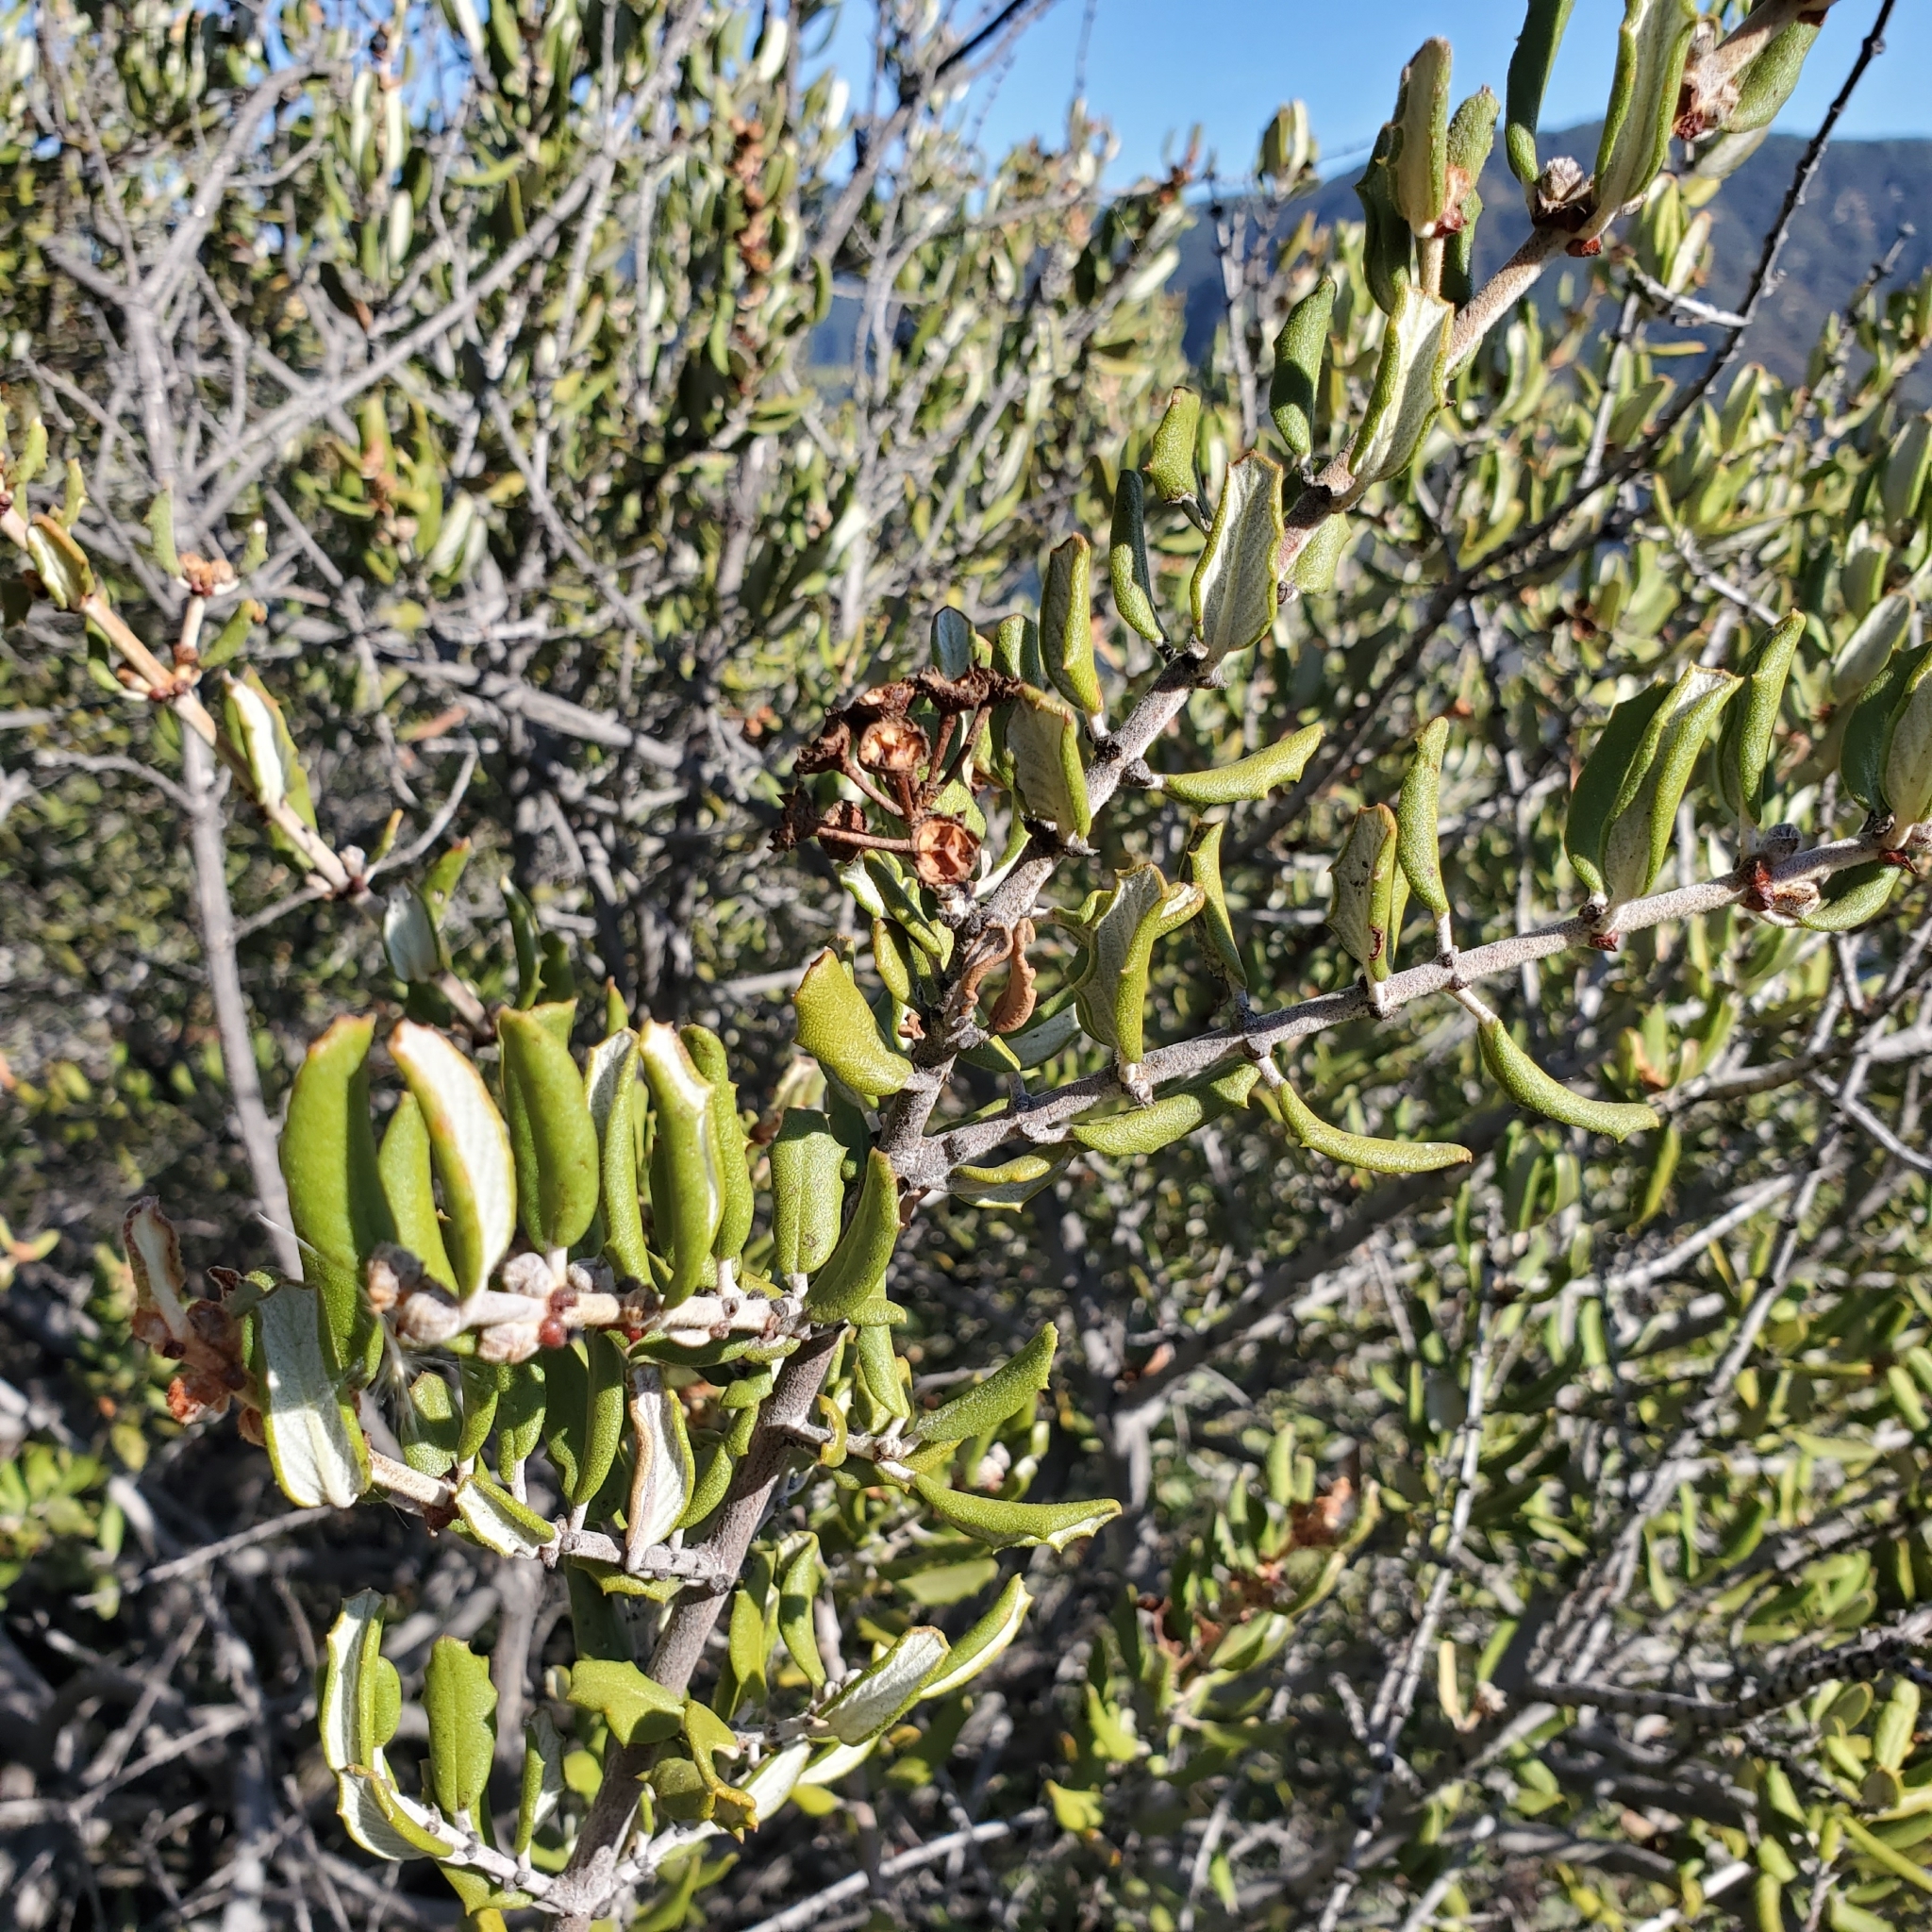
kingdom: Plantae
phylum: Tracheophyta
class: Magnoliopsida
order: Rosales
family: Rhamnaceae
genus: Ceanothus
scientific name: Ceanothus crassifolius
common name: Hoaryleaf ceanothus
